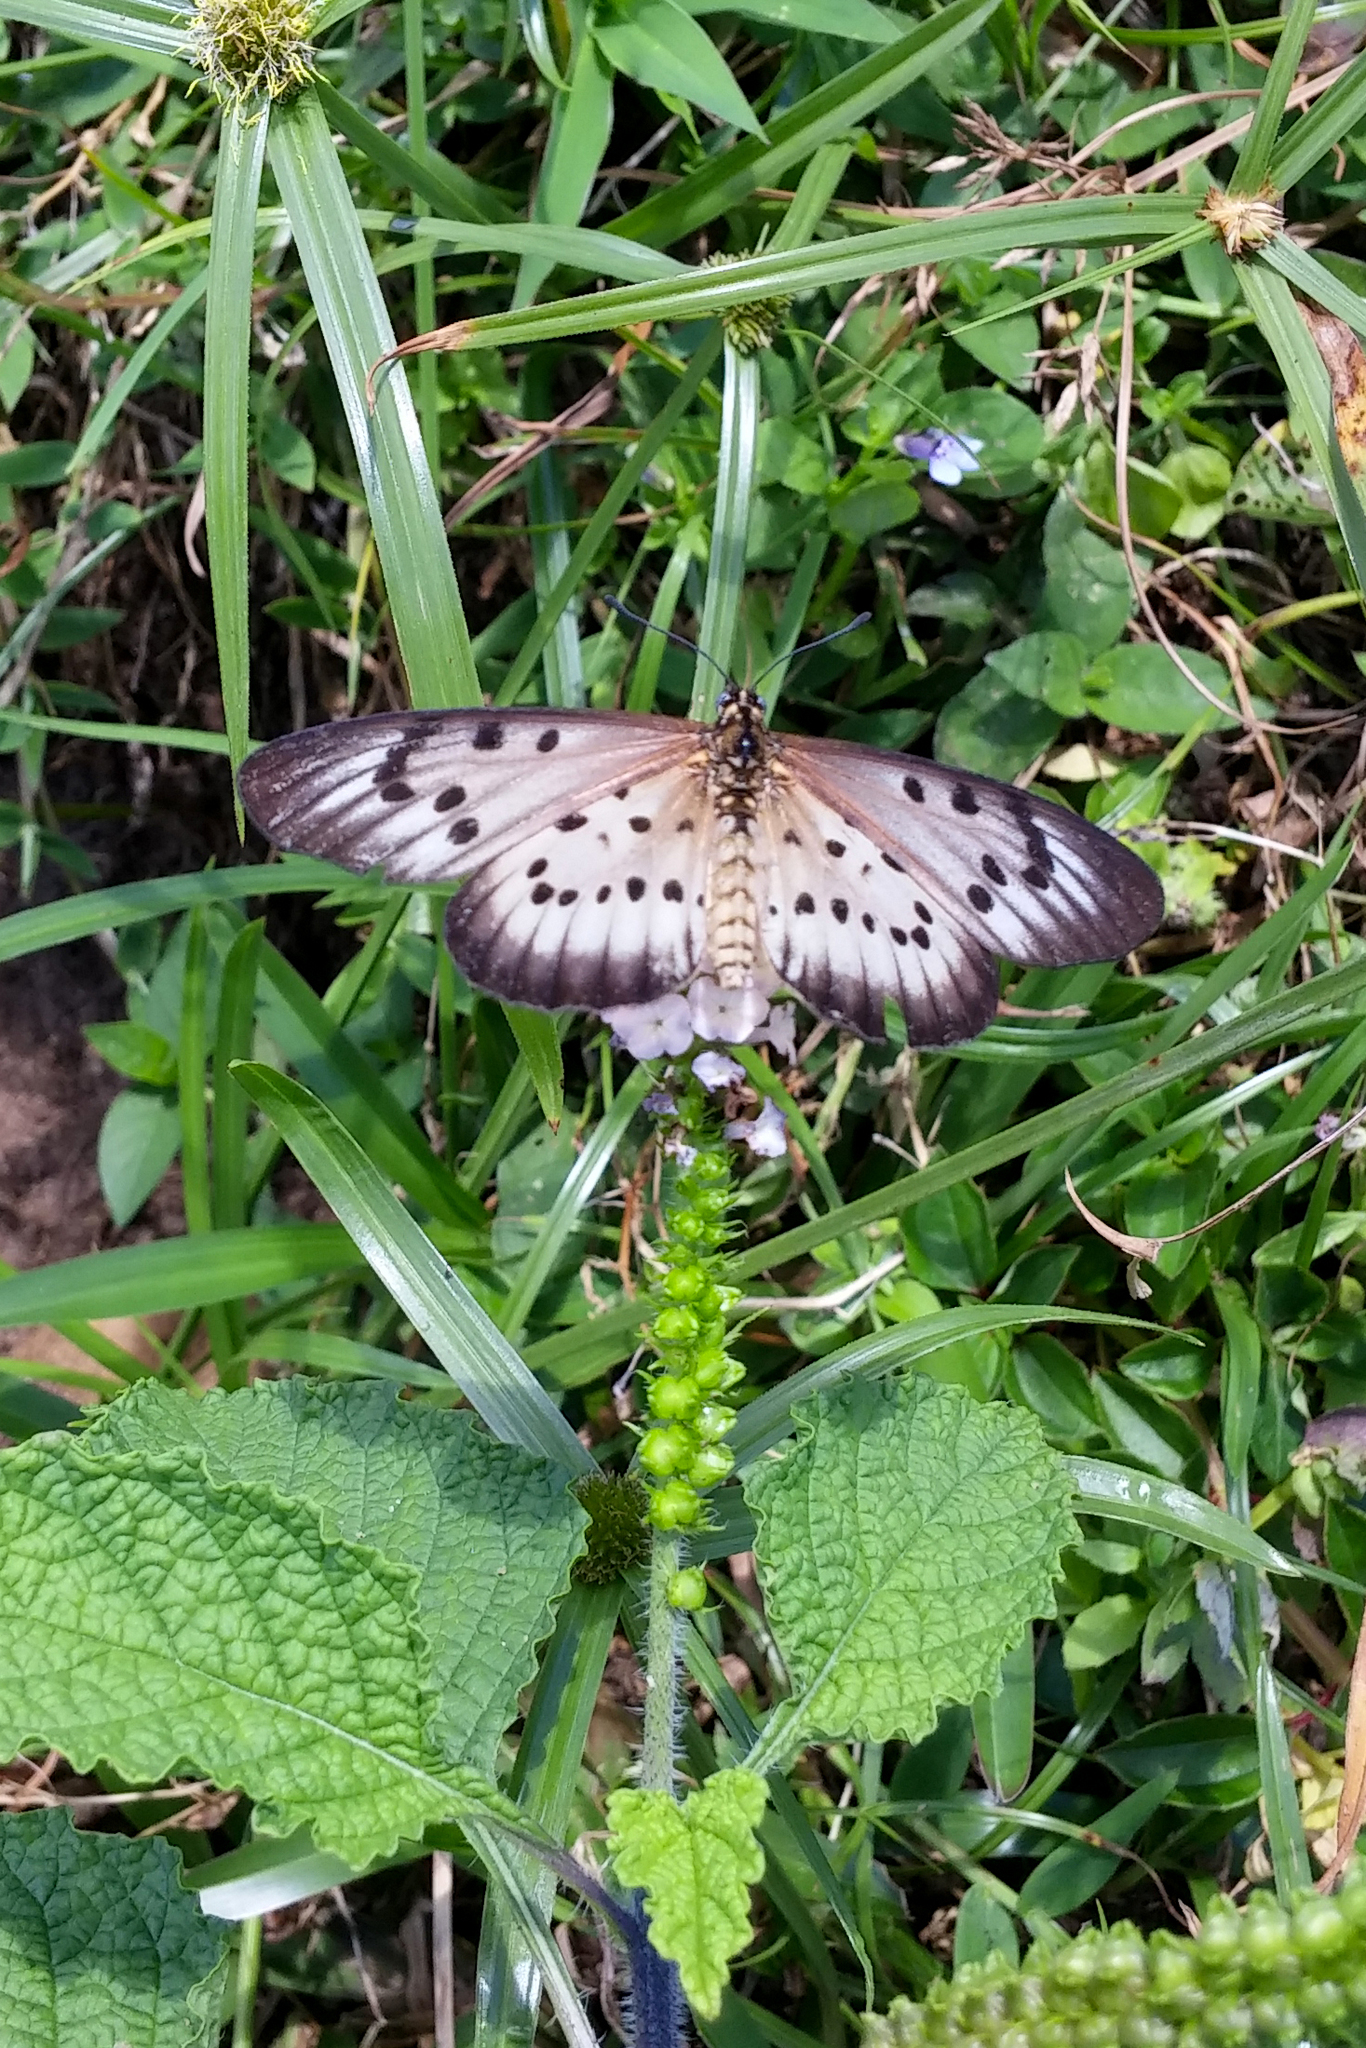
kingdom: Animalia
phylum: Arthropoda
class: Insecta
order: Lepidoptera
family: Nymphalidae
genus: Acraea
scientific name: Acraea
